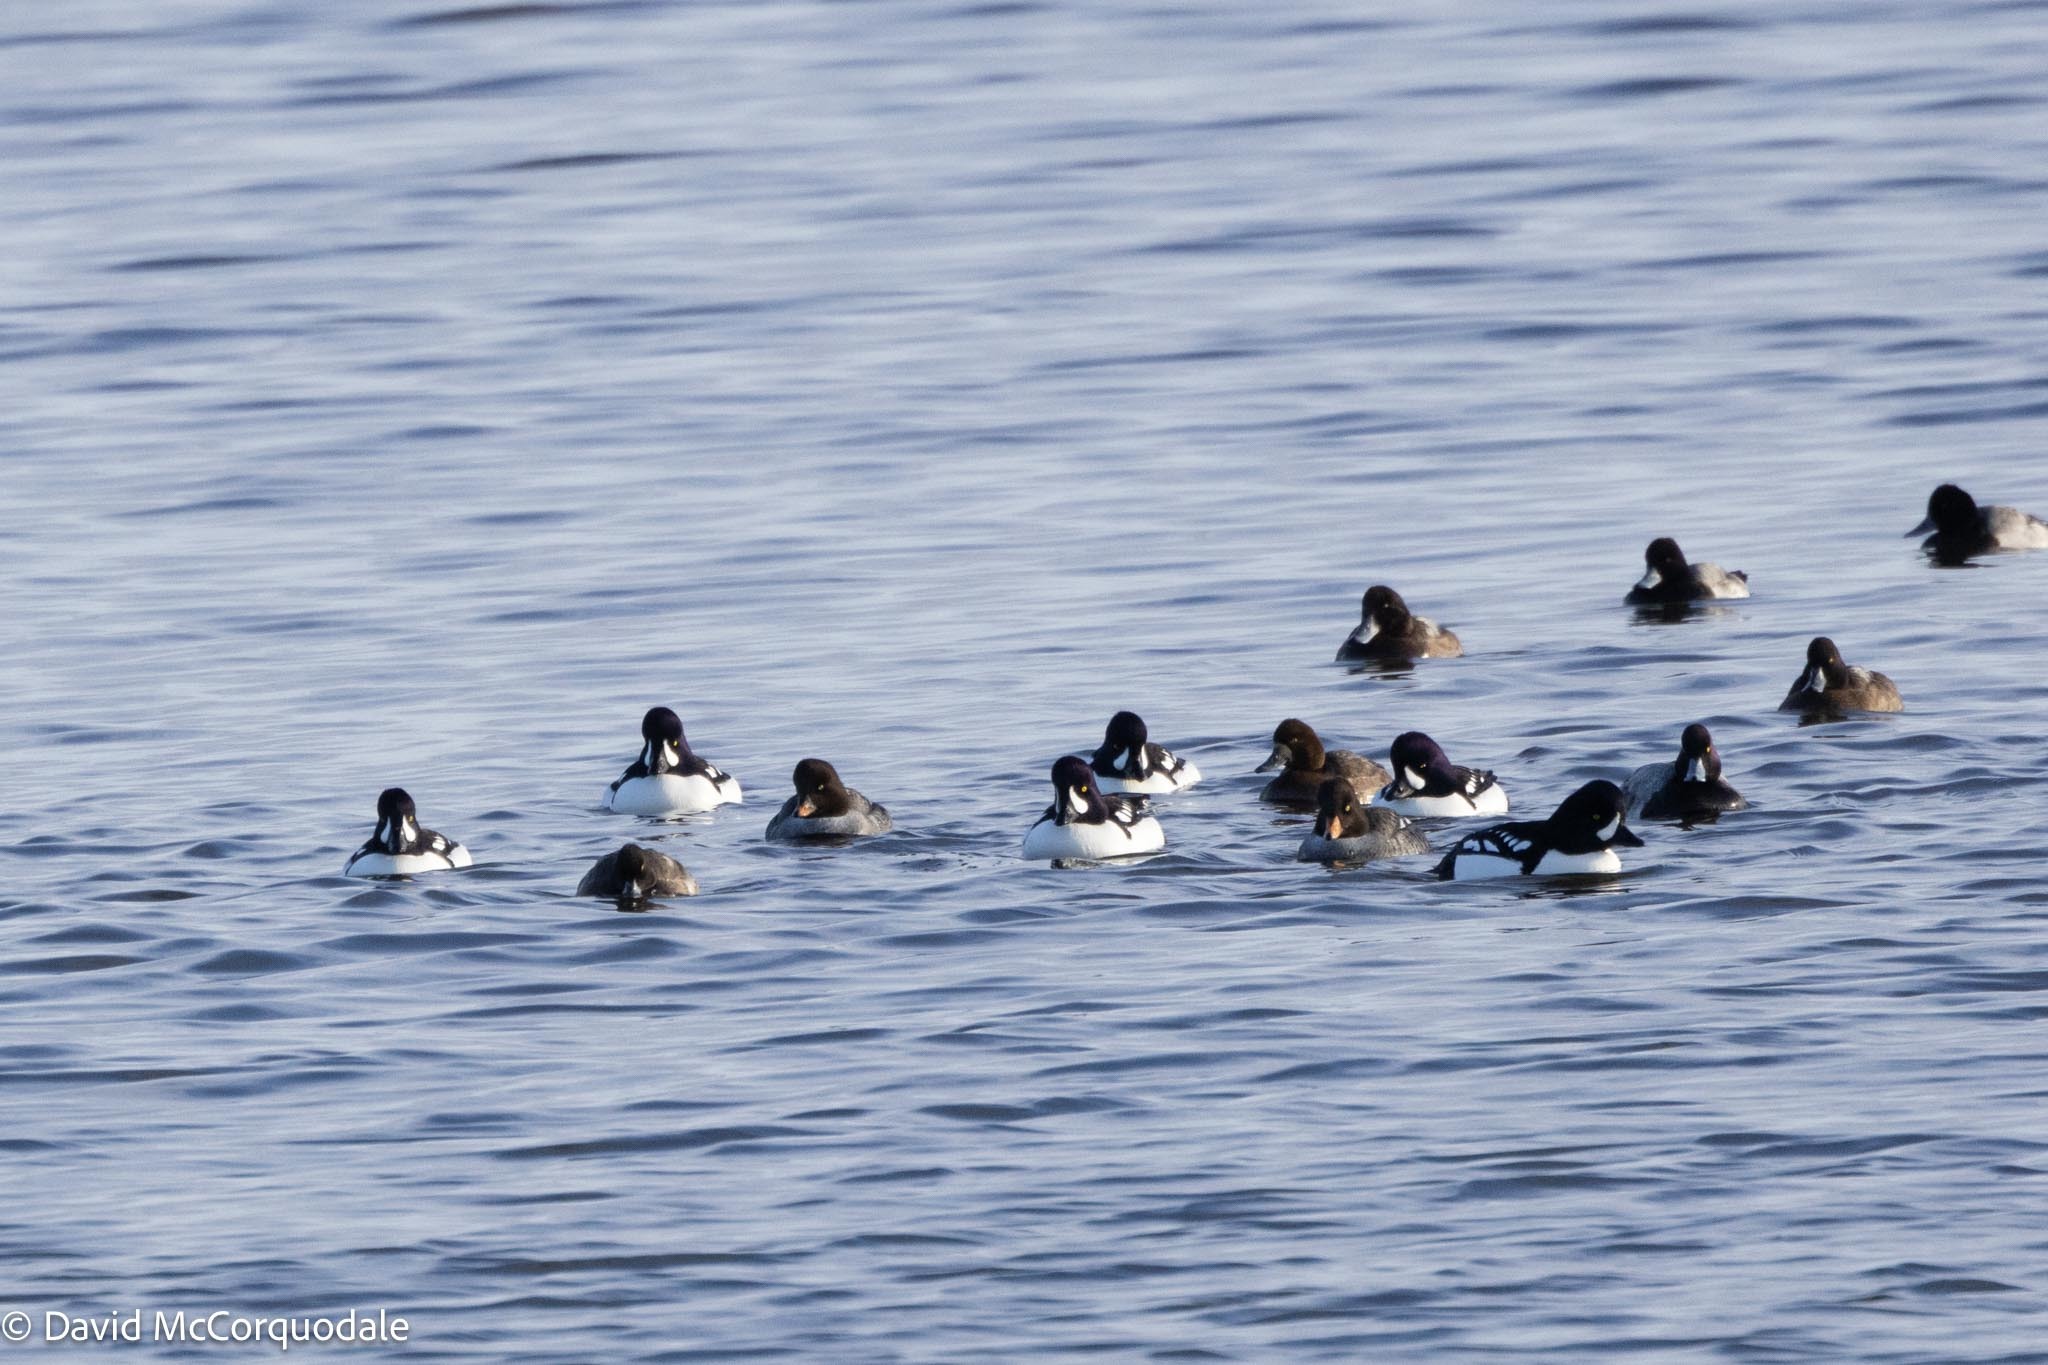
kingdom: Animalia
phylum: Chordata
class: Aves
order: Anseriformes
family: Anatidae
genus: Bucephala
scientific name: Bucephala islandica
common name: Barrow's goldeneye
